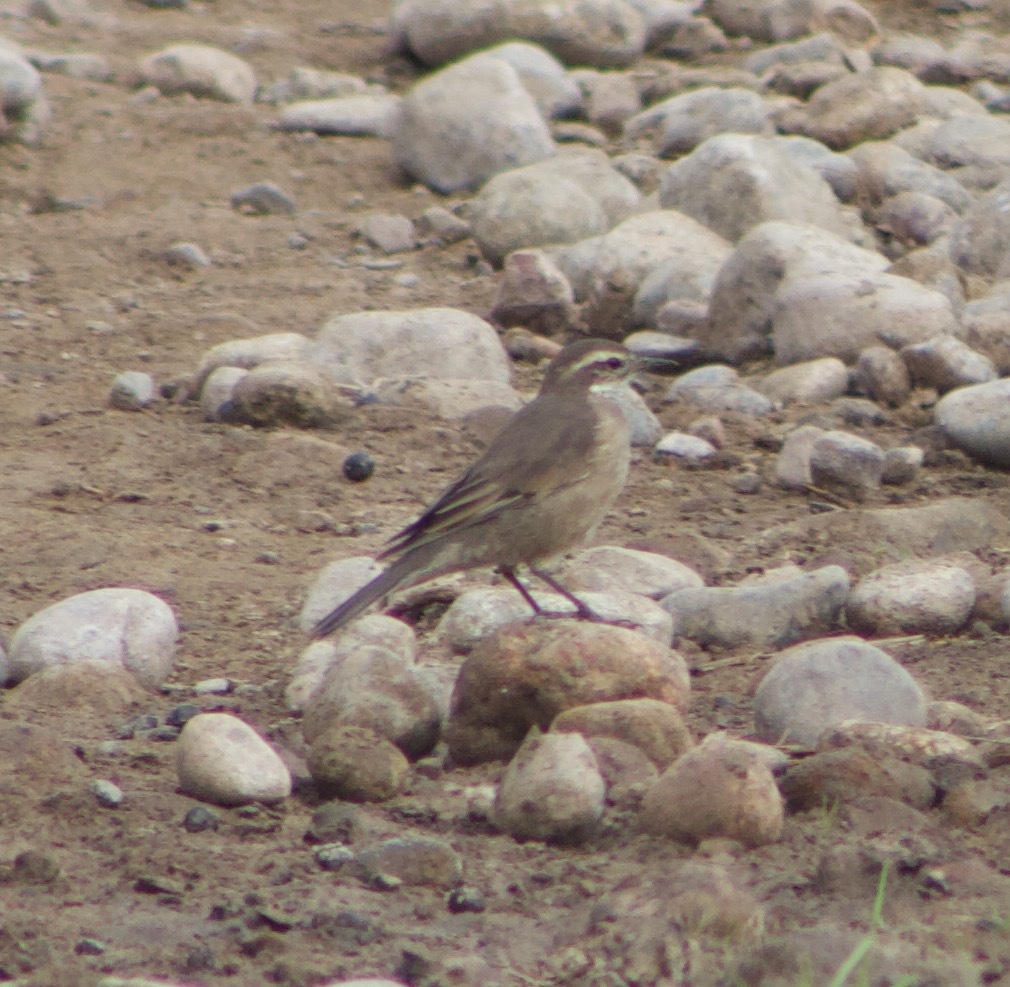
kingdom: Animalia
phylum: Chordata
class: Aves
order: Passeriformes
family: Furnariidae
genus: Cinclodes
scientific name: Cinclodes fuscus
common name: Buff-winged cinclodes
